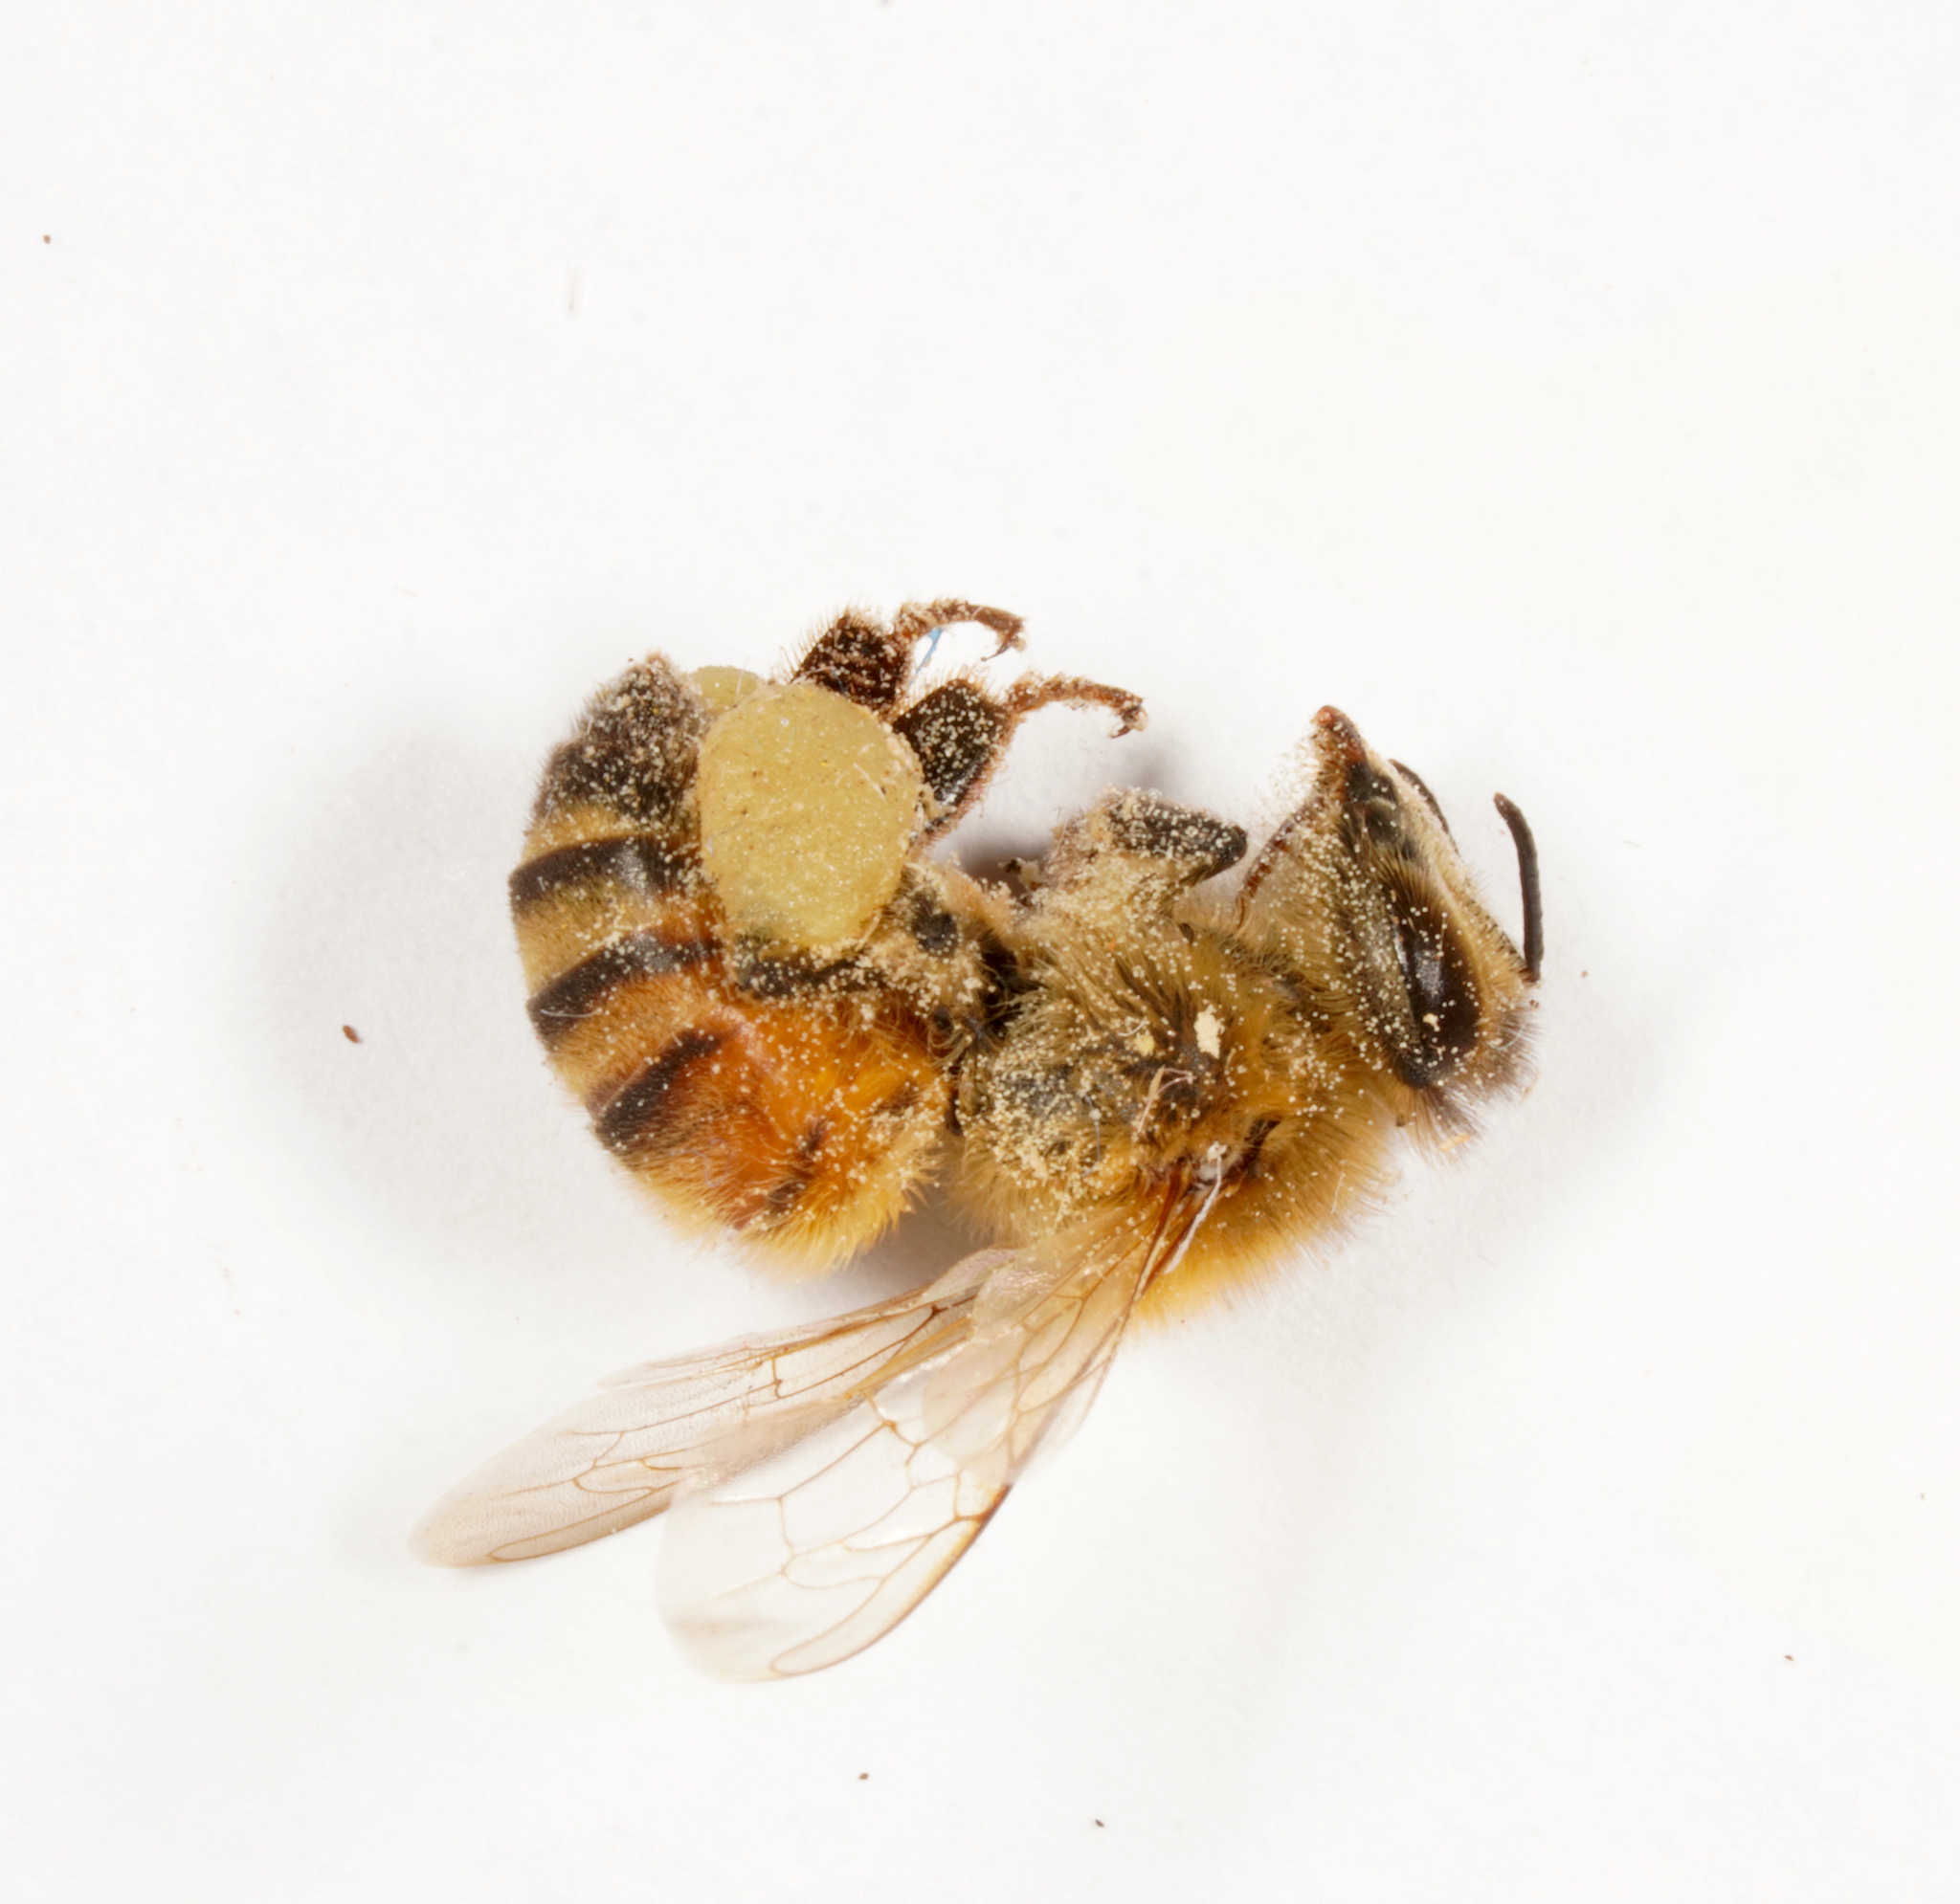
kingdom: Animalia
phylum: Arthropoda
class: Insecta
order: Hymenoptera
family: Apidae
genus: Apis
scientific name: Apis mellifera
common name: Honey bee
